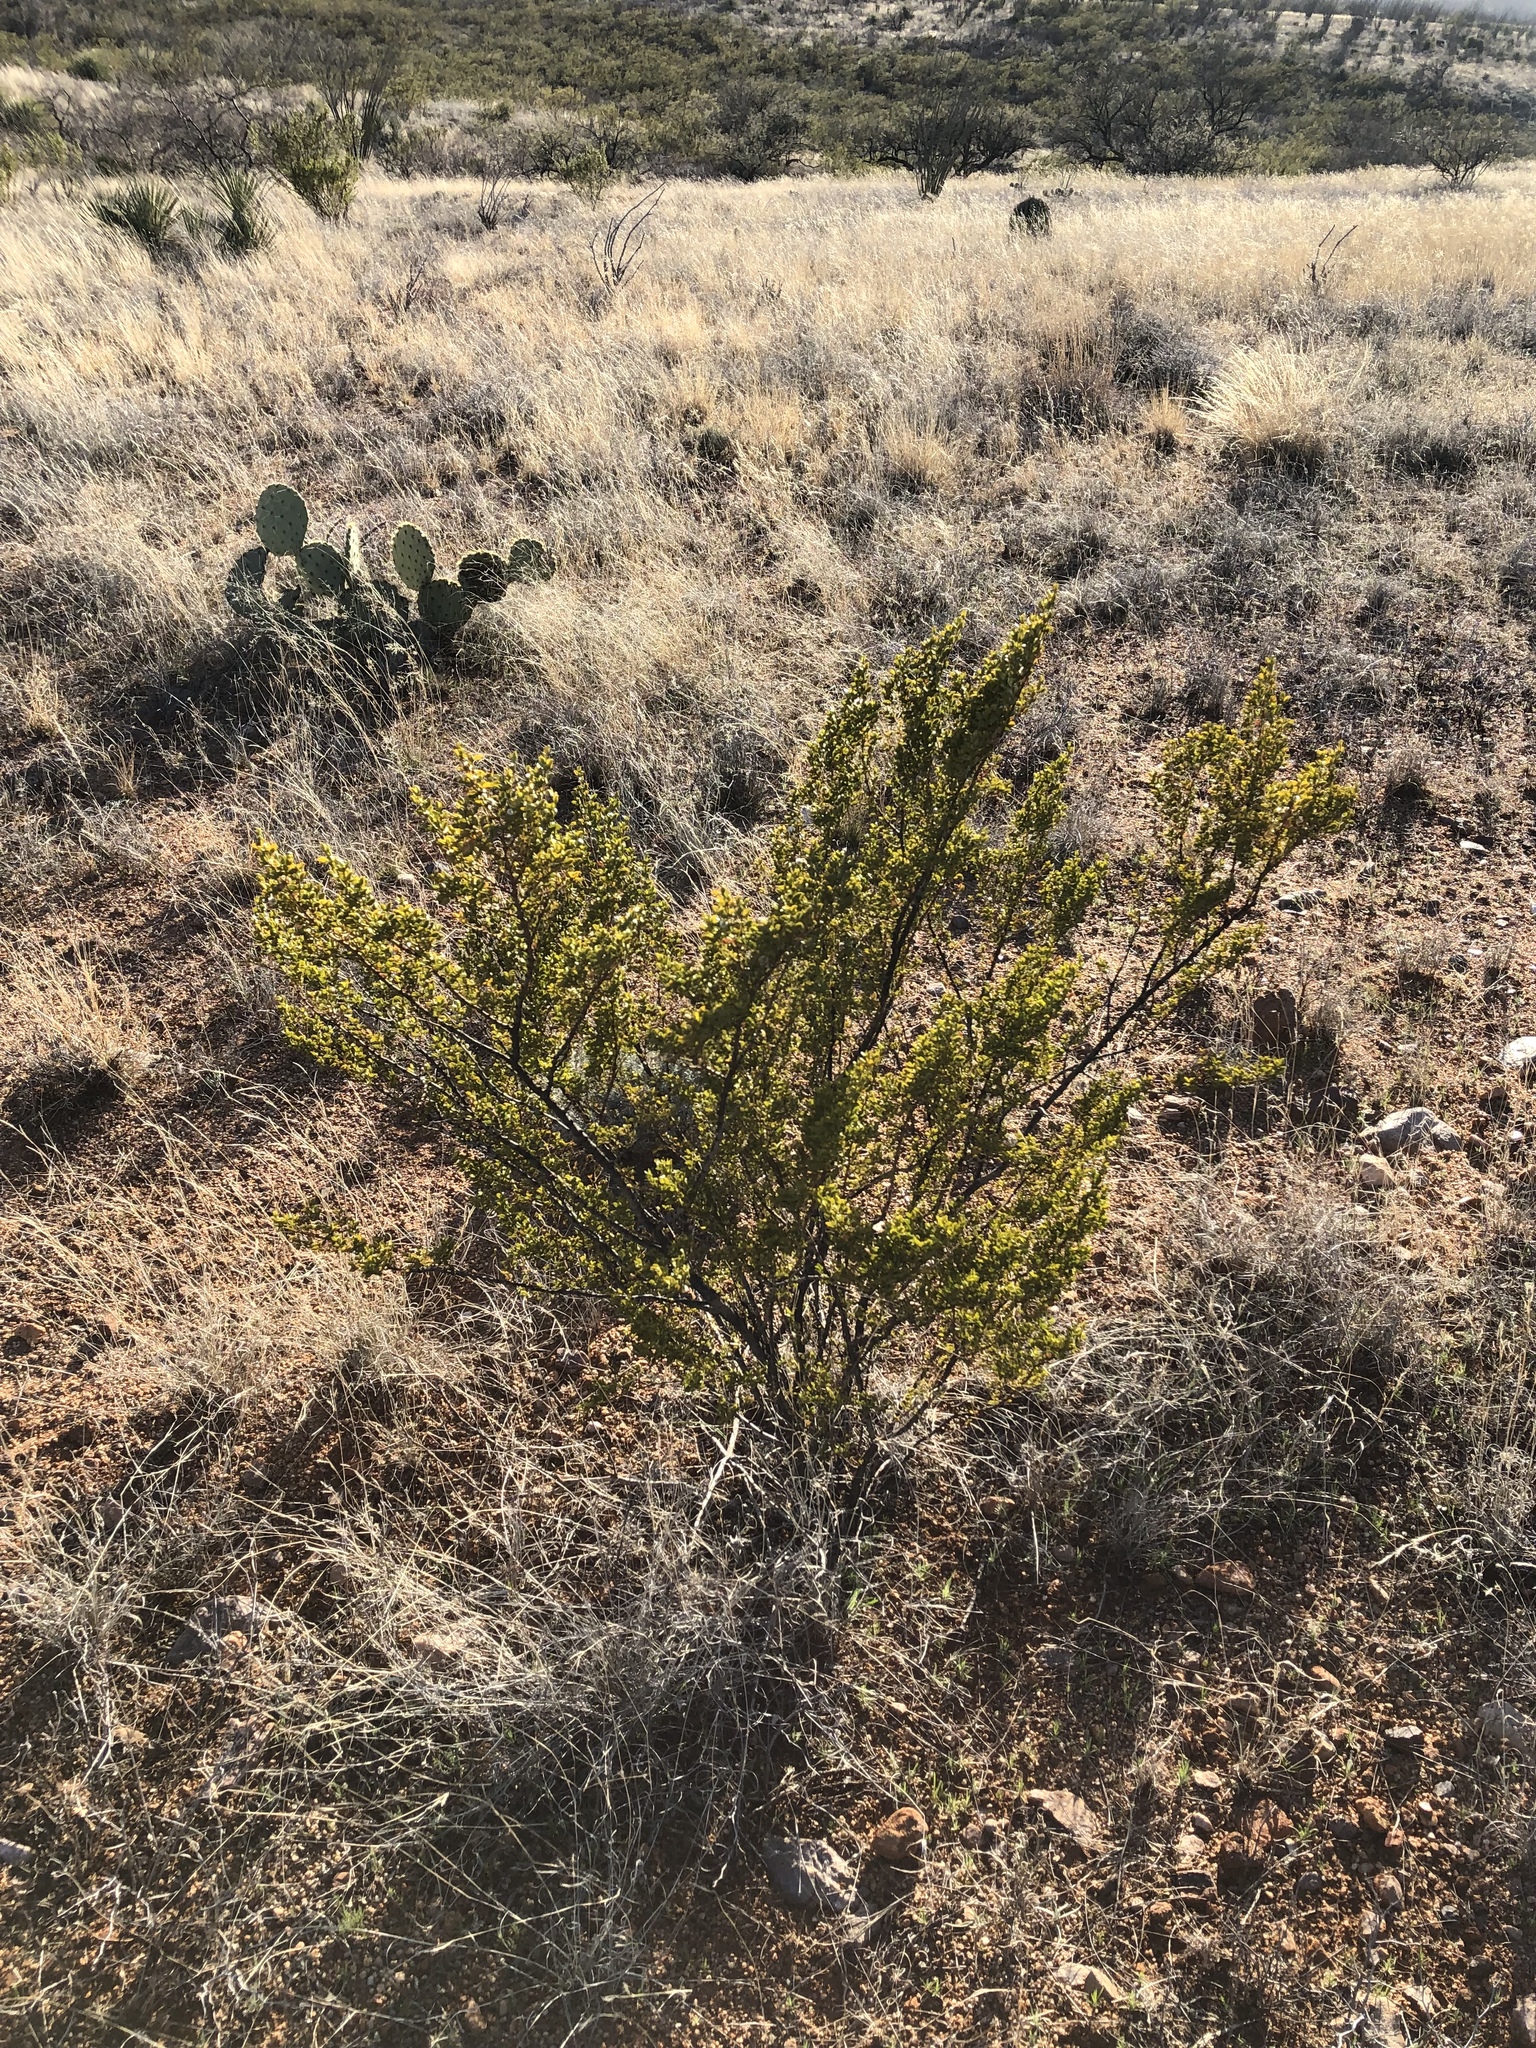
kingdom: Plantae
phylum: Tracheophyta
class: Magnoliopsida
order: Zygophyllales
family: Zygophyllaceae
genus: Larrea
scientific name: Larrea tridentata
